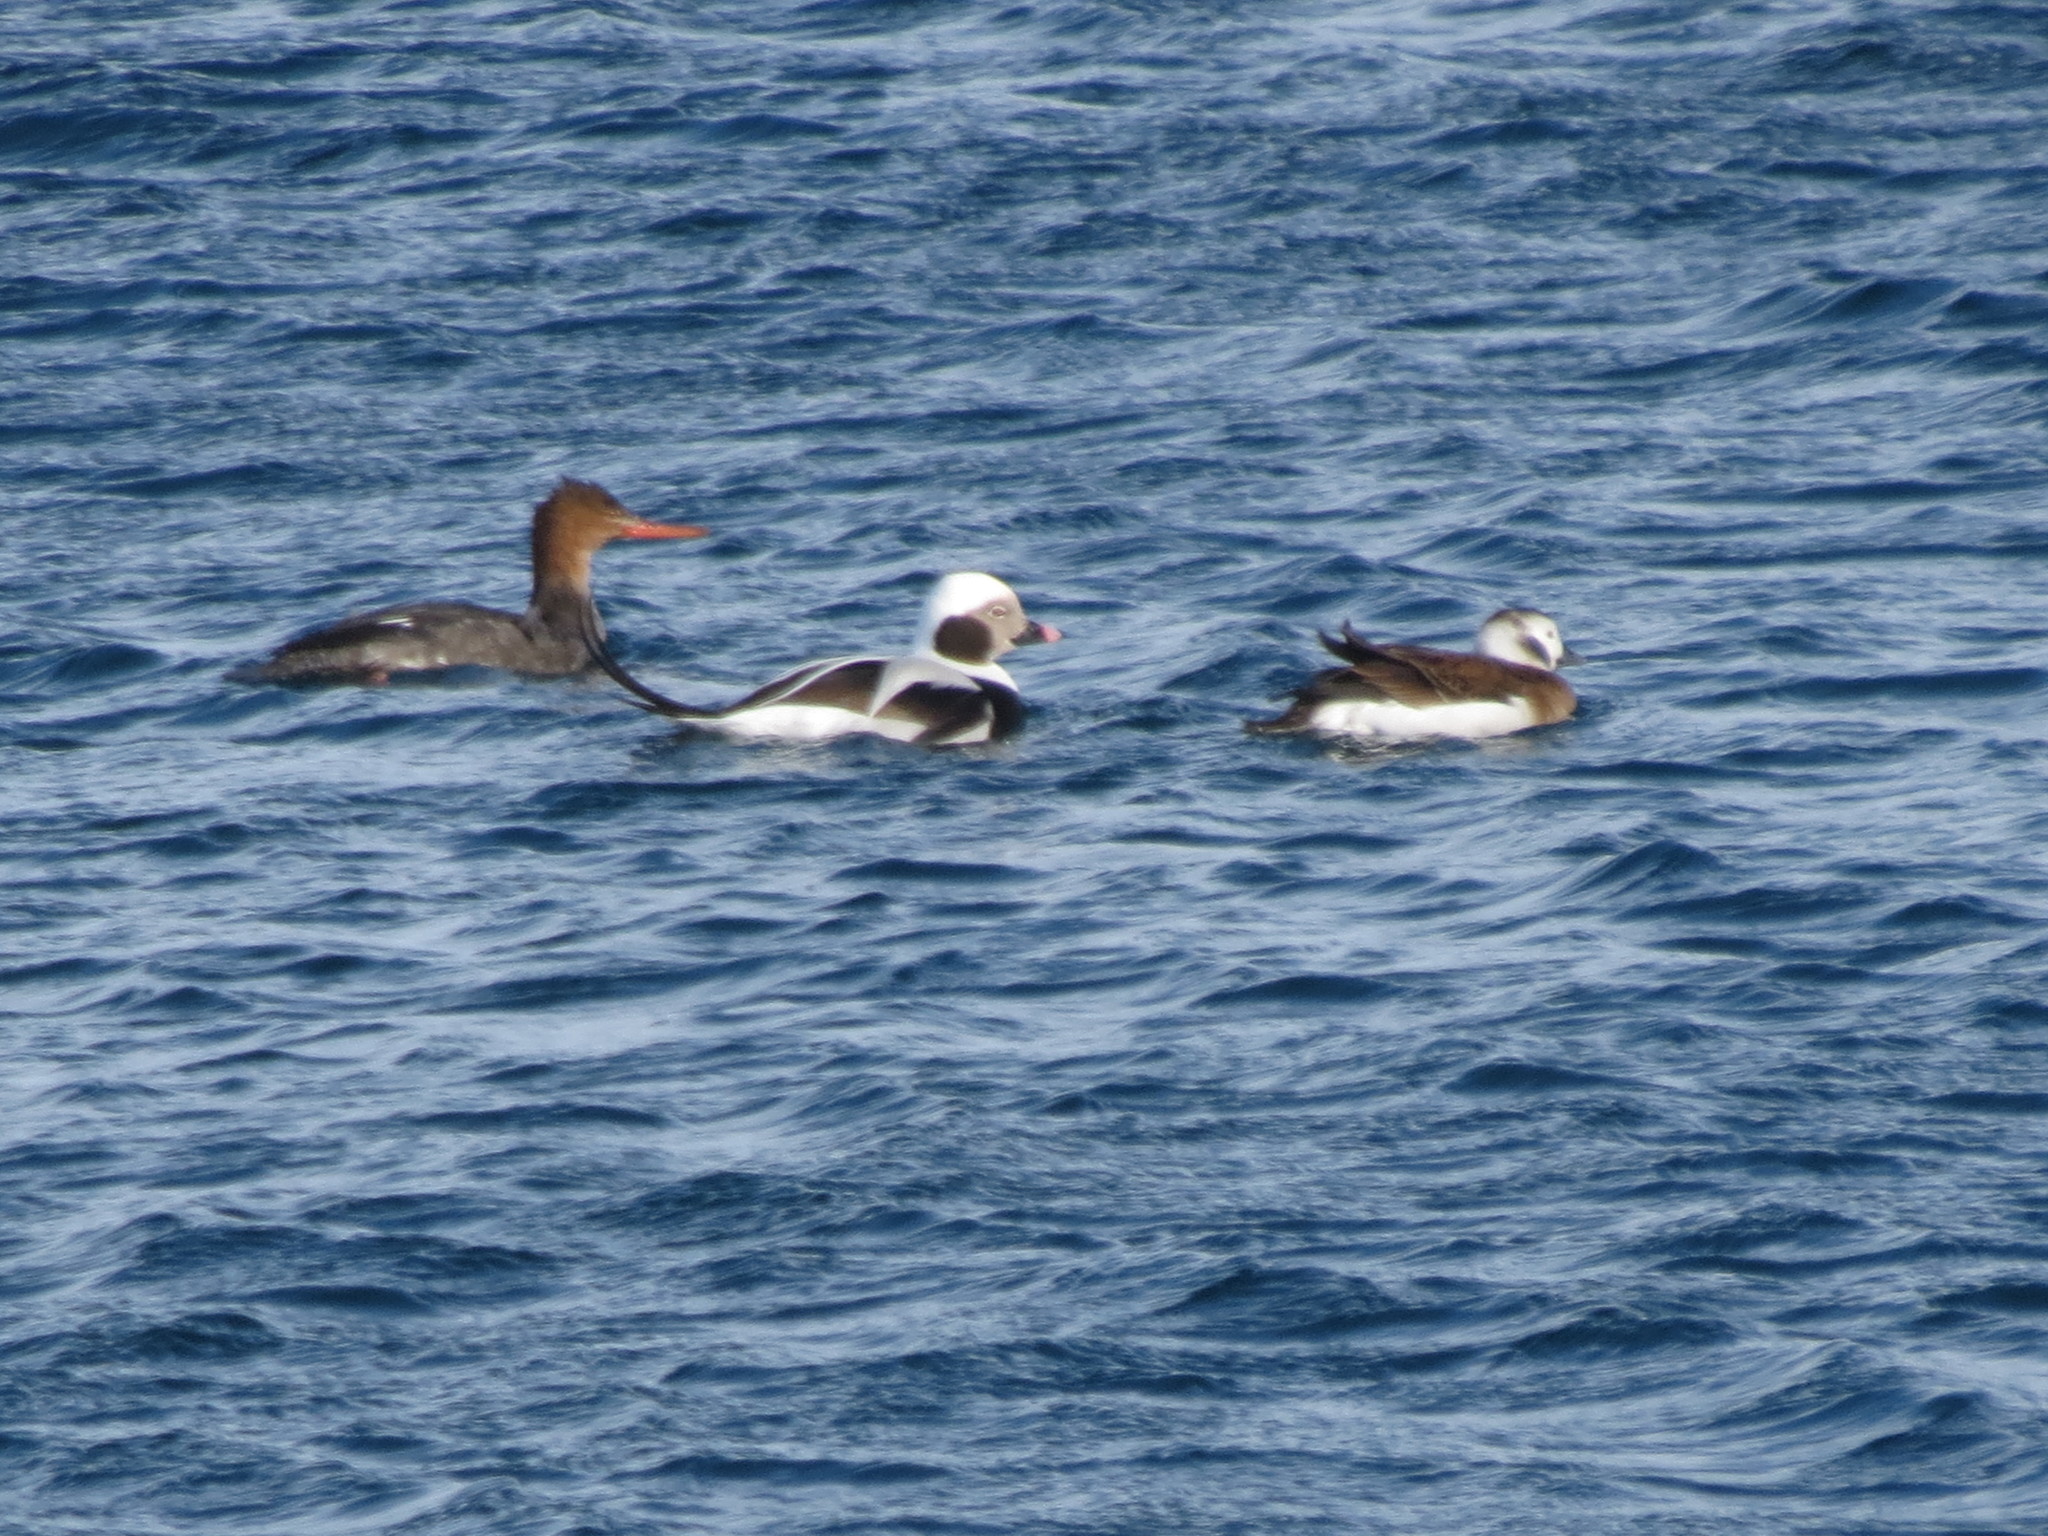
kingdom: Animalia
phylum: Chordata
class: Aves
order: Anseriformes
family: Anatidae
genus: Clangula
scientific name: Clangula hyemalis
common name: Long-tailed duck
